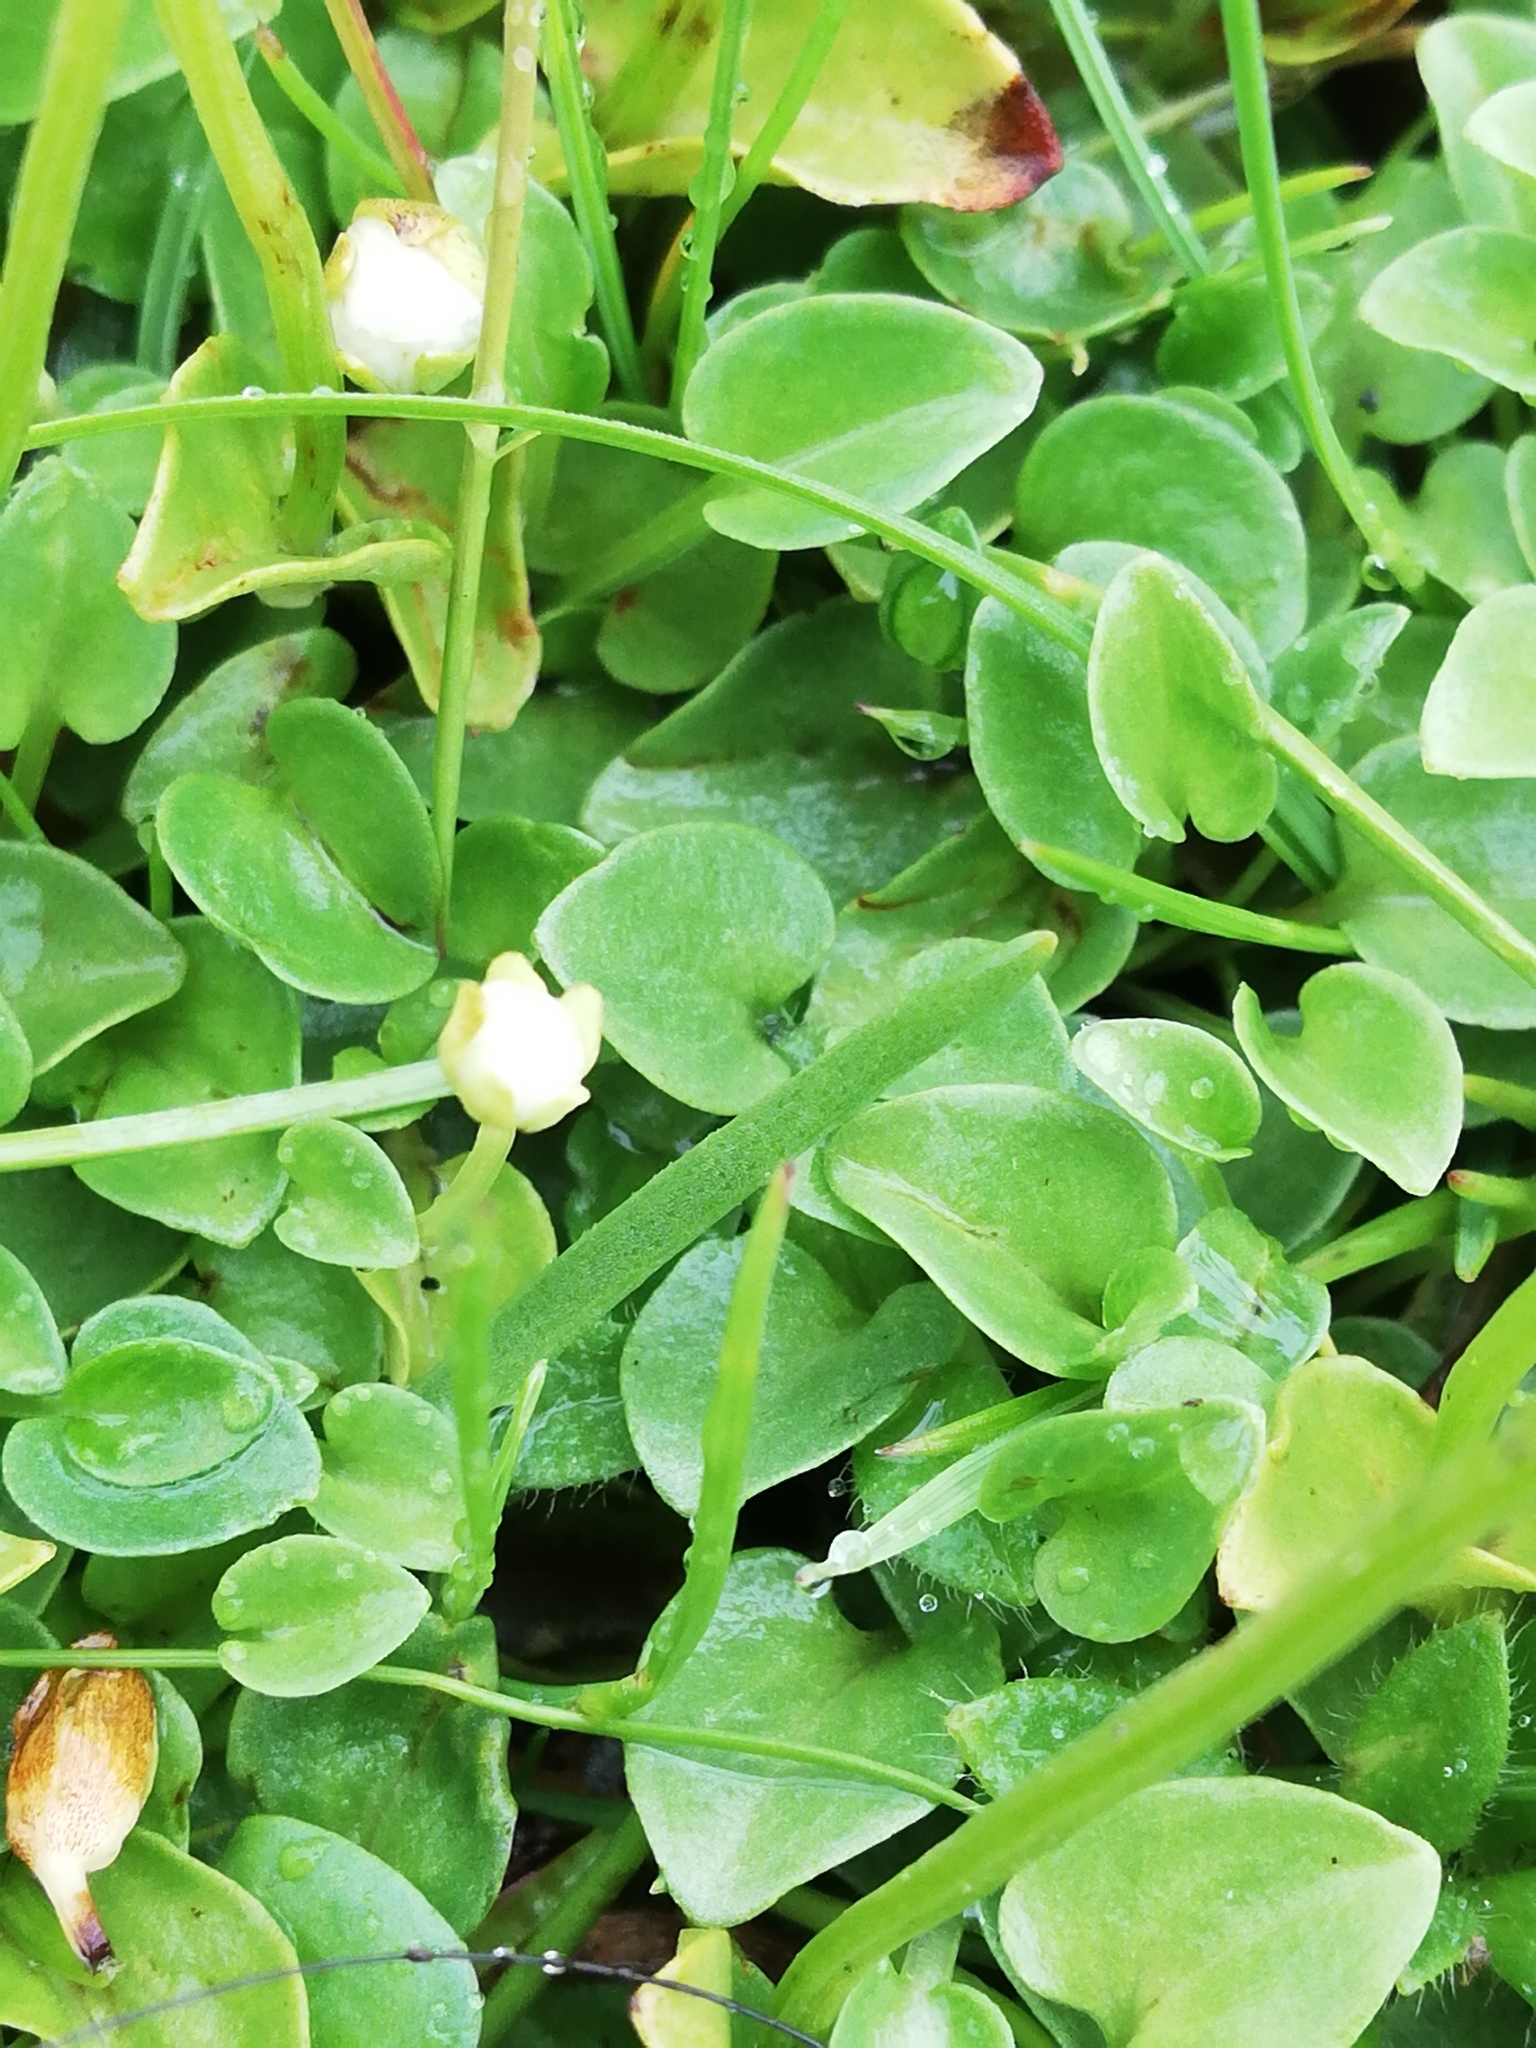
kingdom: Plantae
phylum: Tracheophyta
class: Magnoliopsida
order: Celastrales
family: Parnassiaceae
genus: Parnassia
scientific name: Parnassia palustris
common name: Grass-of-parnassus
